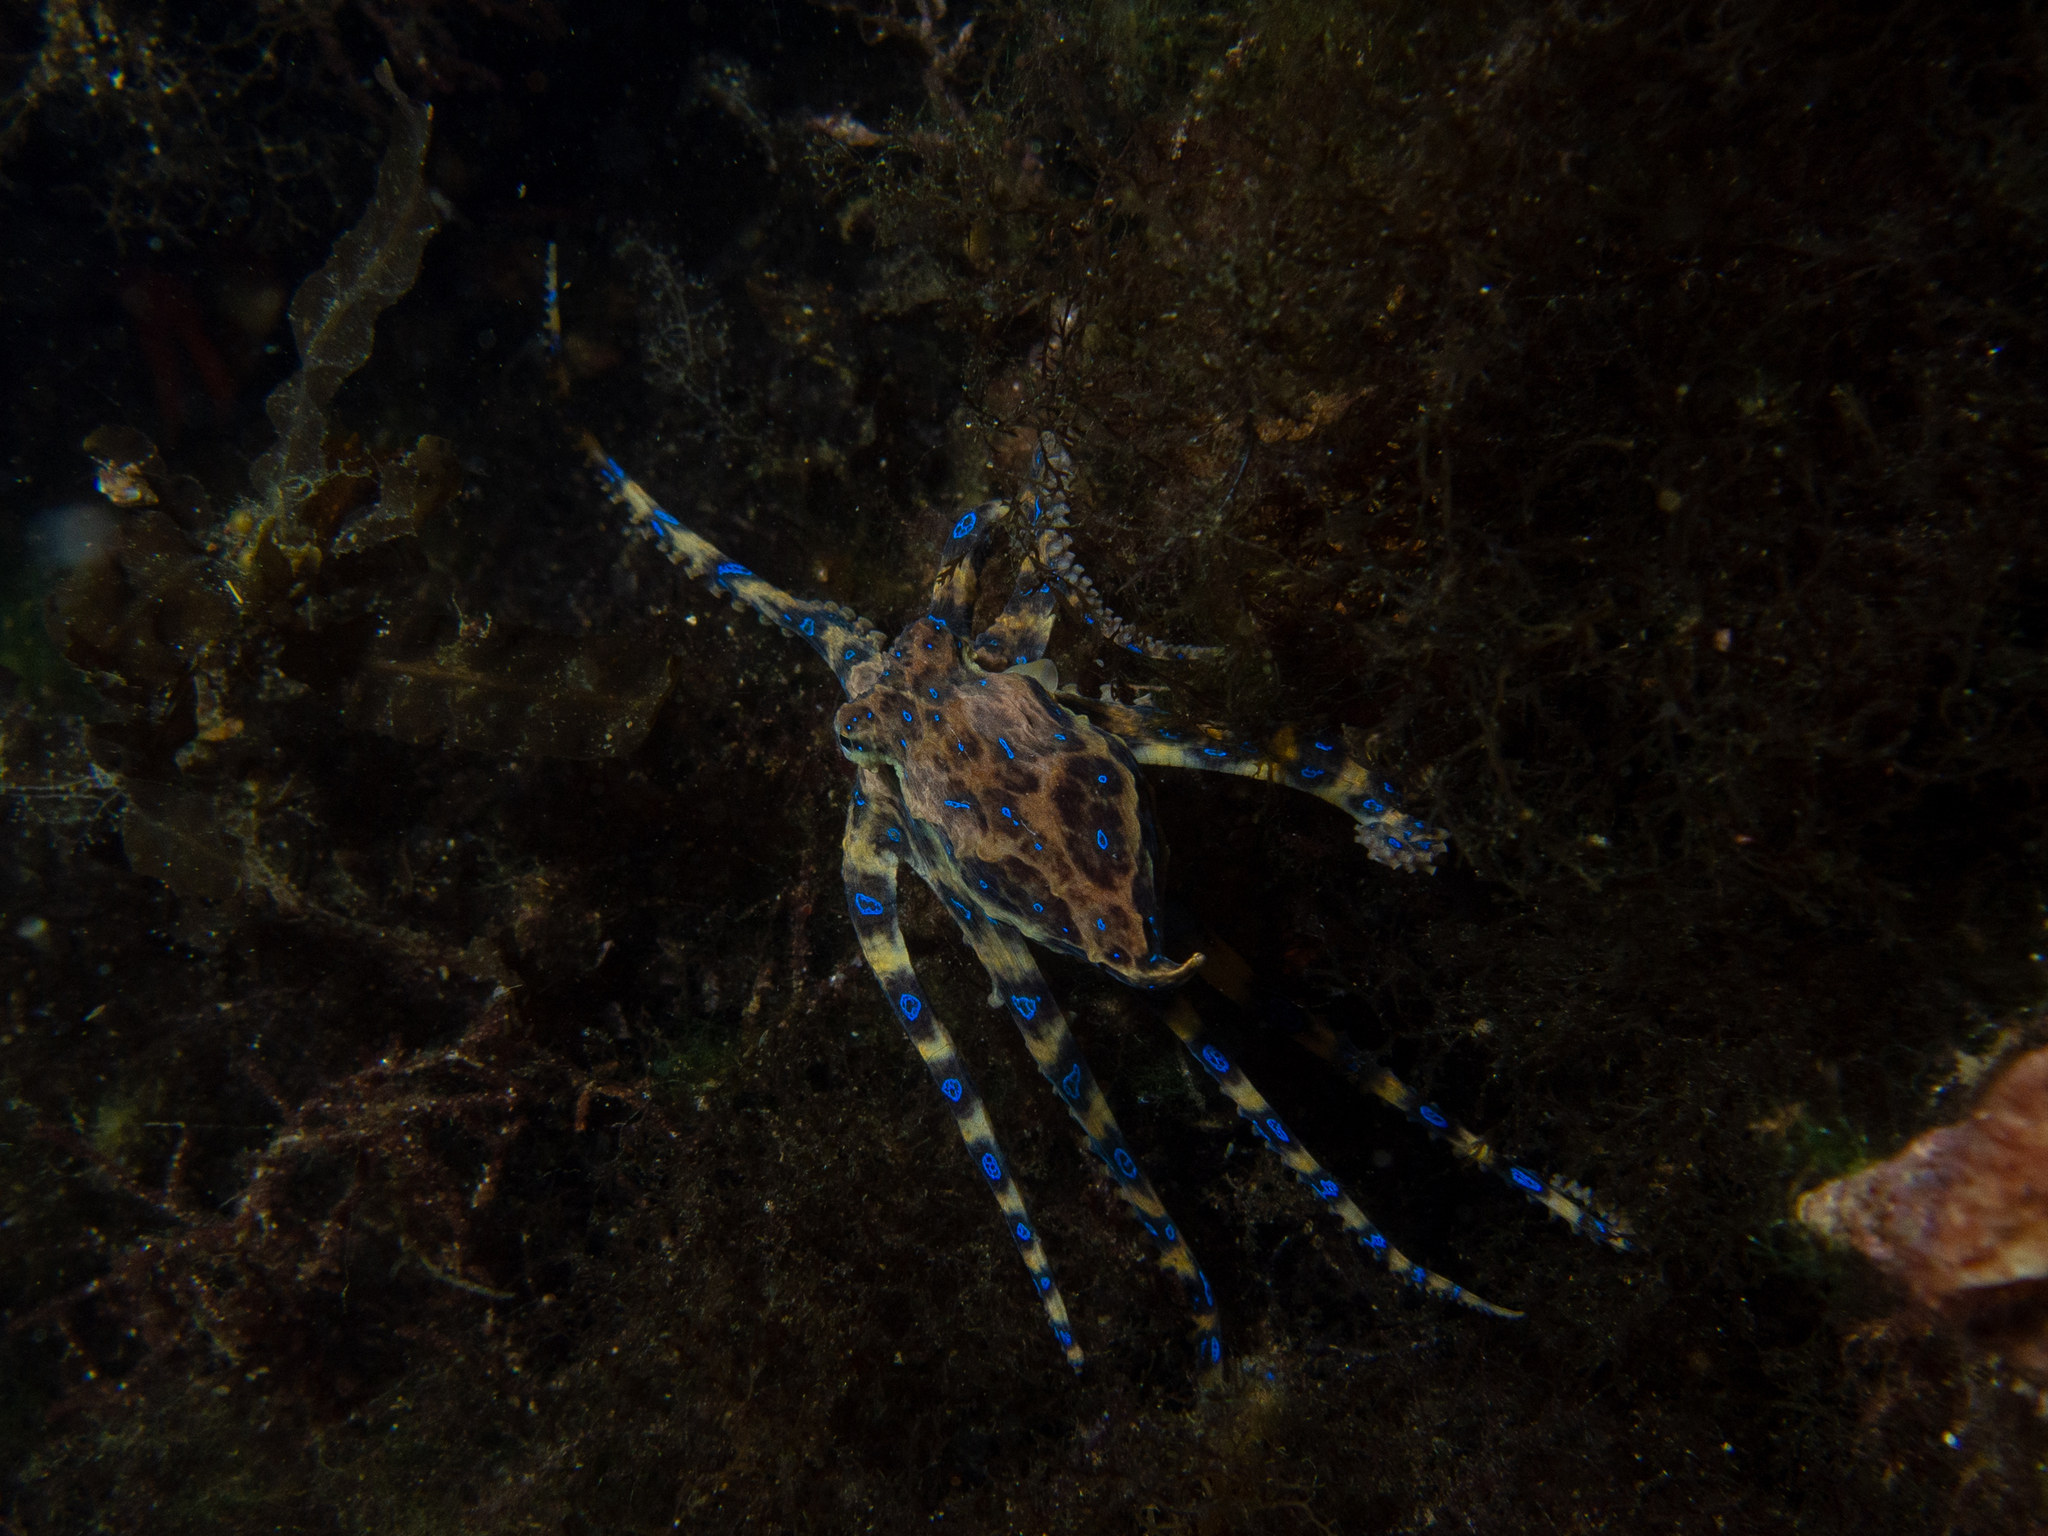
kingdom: Animalia
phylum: Mollusca
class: Cephalopoda
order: Octopoda
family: Octopodidae
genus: Hapalochlaena
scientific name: Hapalochlaena maculosa
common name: Blue-ringed octopus
